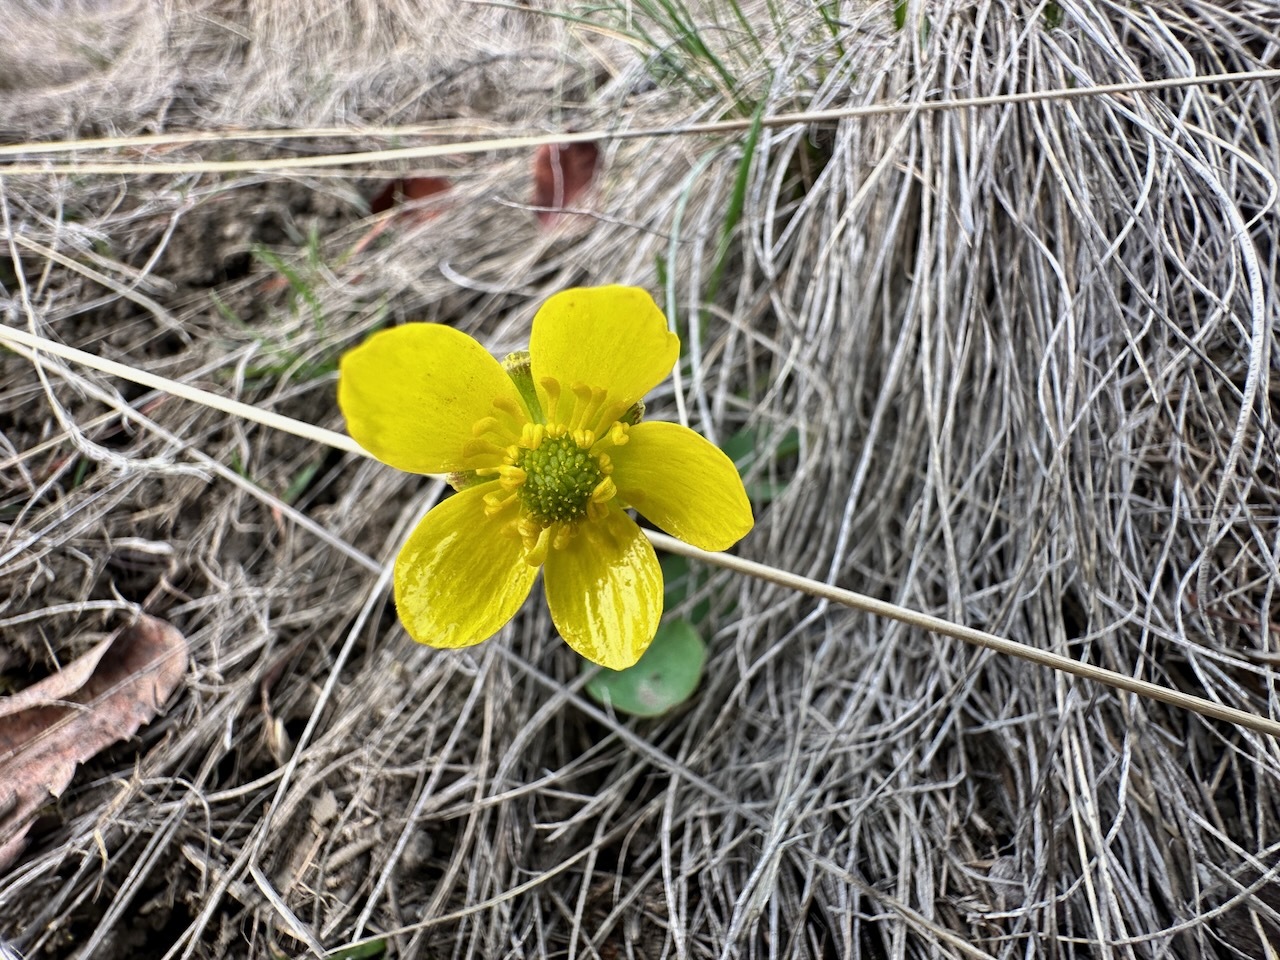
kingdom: Plantae
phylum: Tracheophyta
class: Magnoliopsida
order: Ranunculales
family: Ranunculaceae
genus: Ranunculus
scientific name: Ranunculus glaberrimus
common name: Sagebrush buttercup
